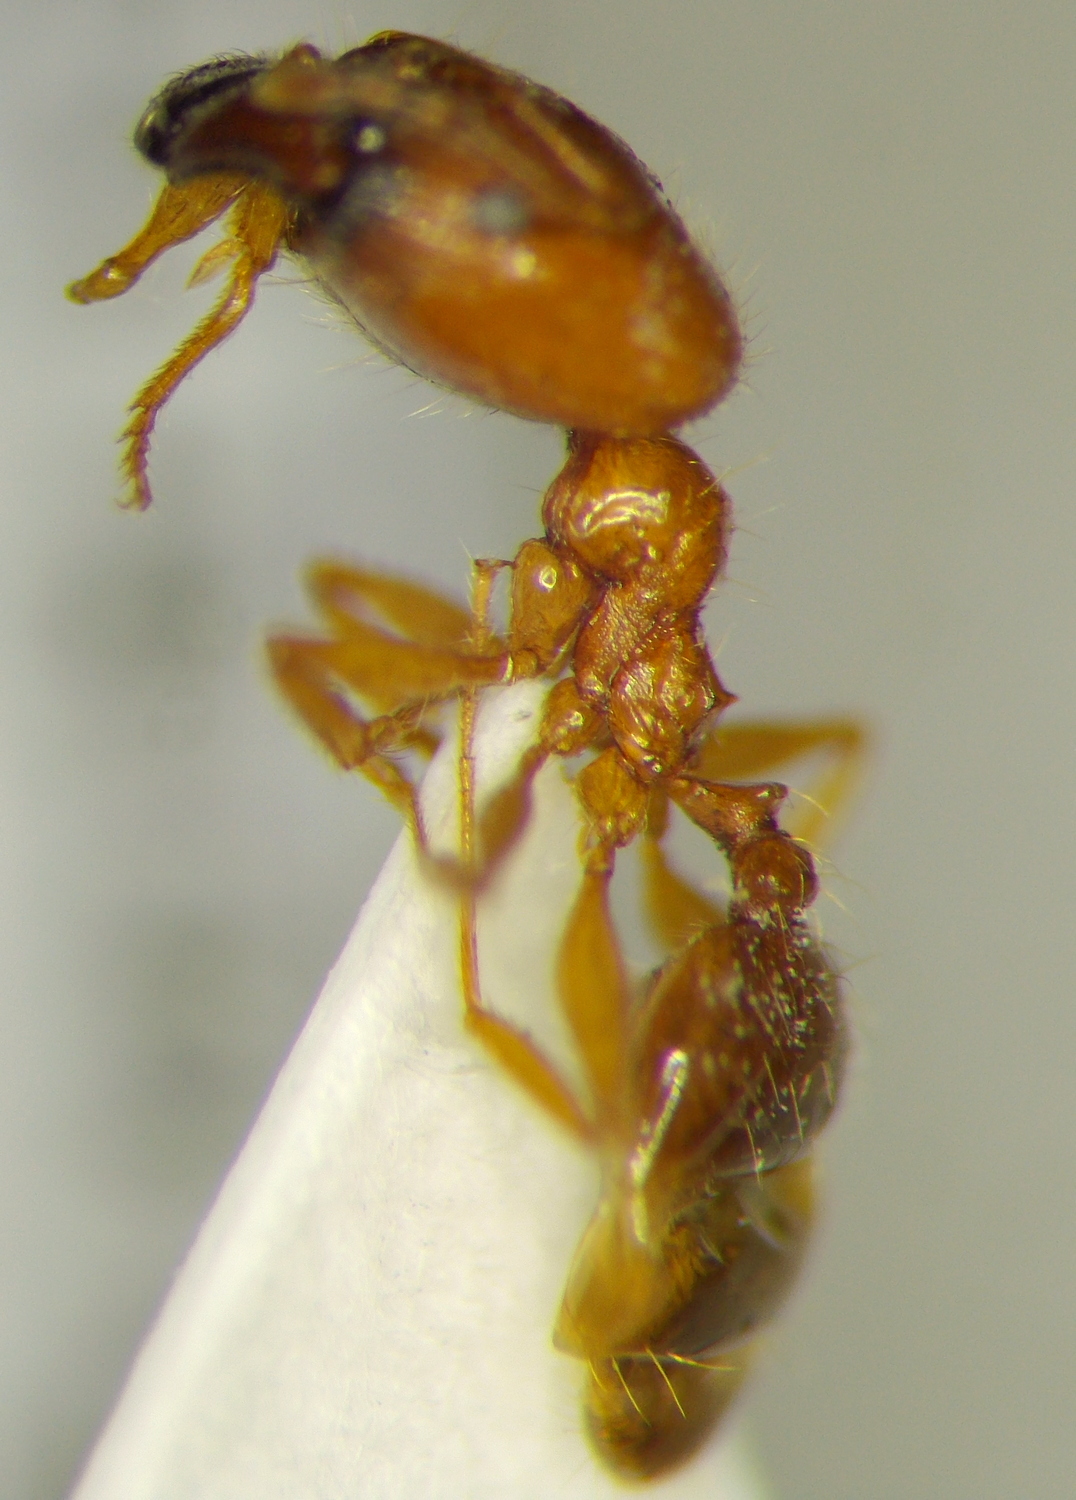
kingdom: Animalia
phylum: Arthropoda
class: Insecta
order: Hymenoptera
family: Formicidae
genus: Pheidole
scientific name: Pheidole pallidula
